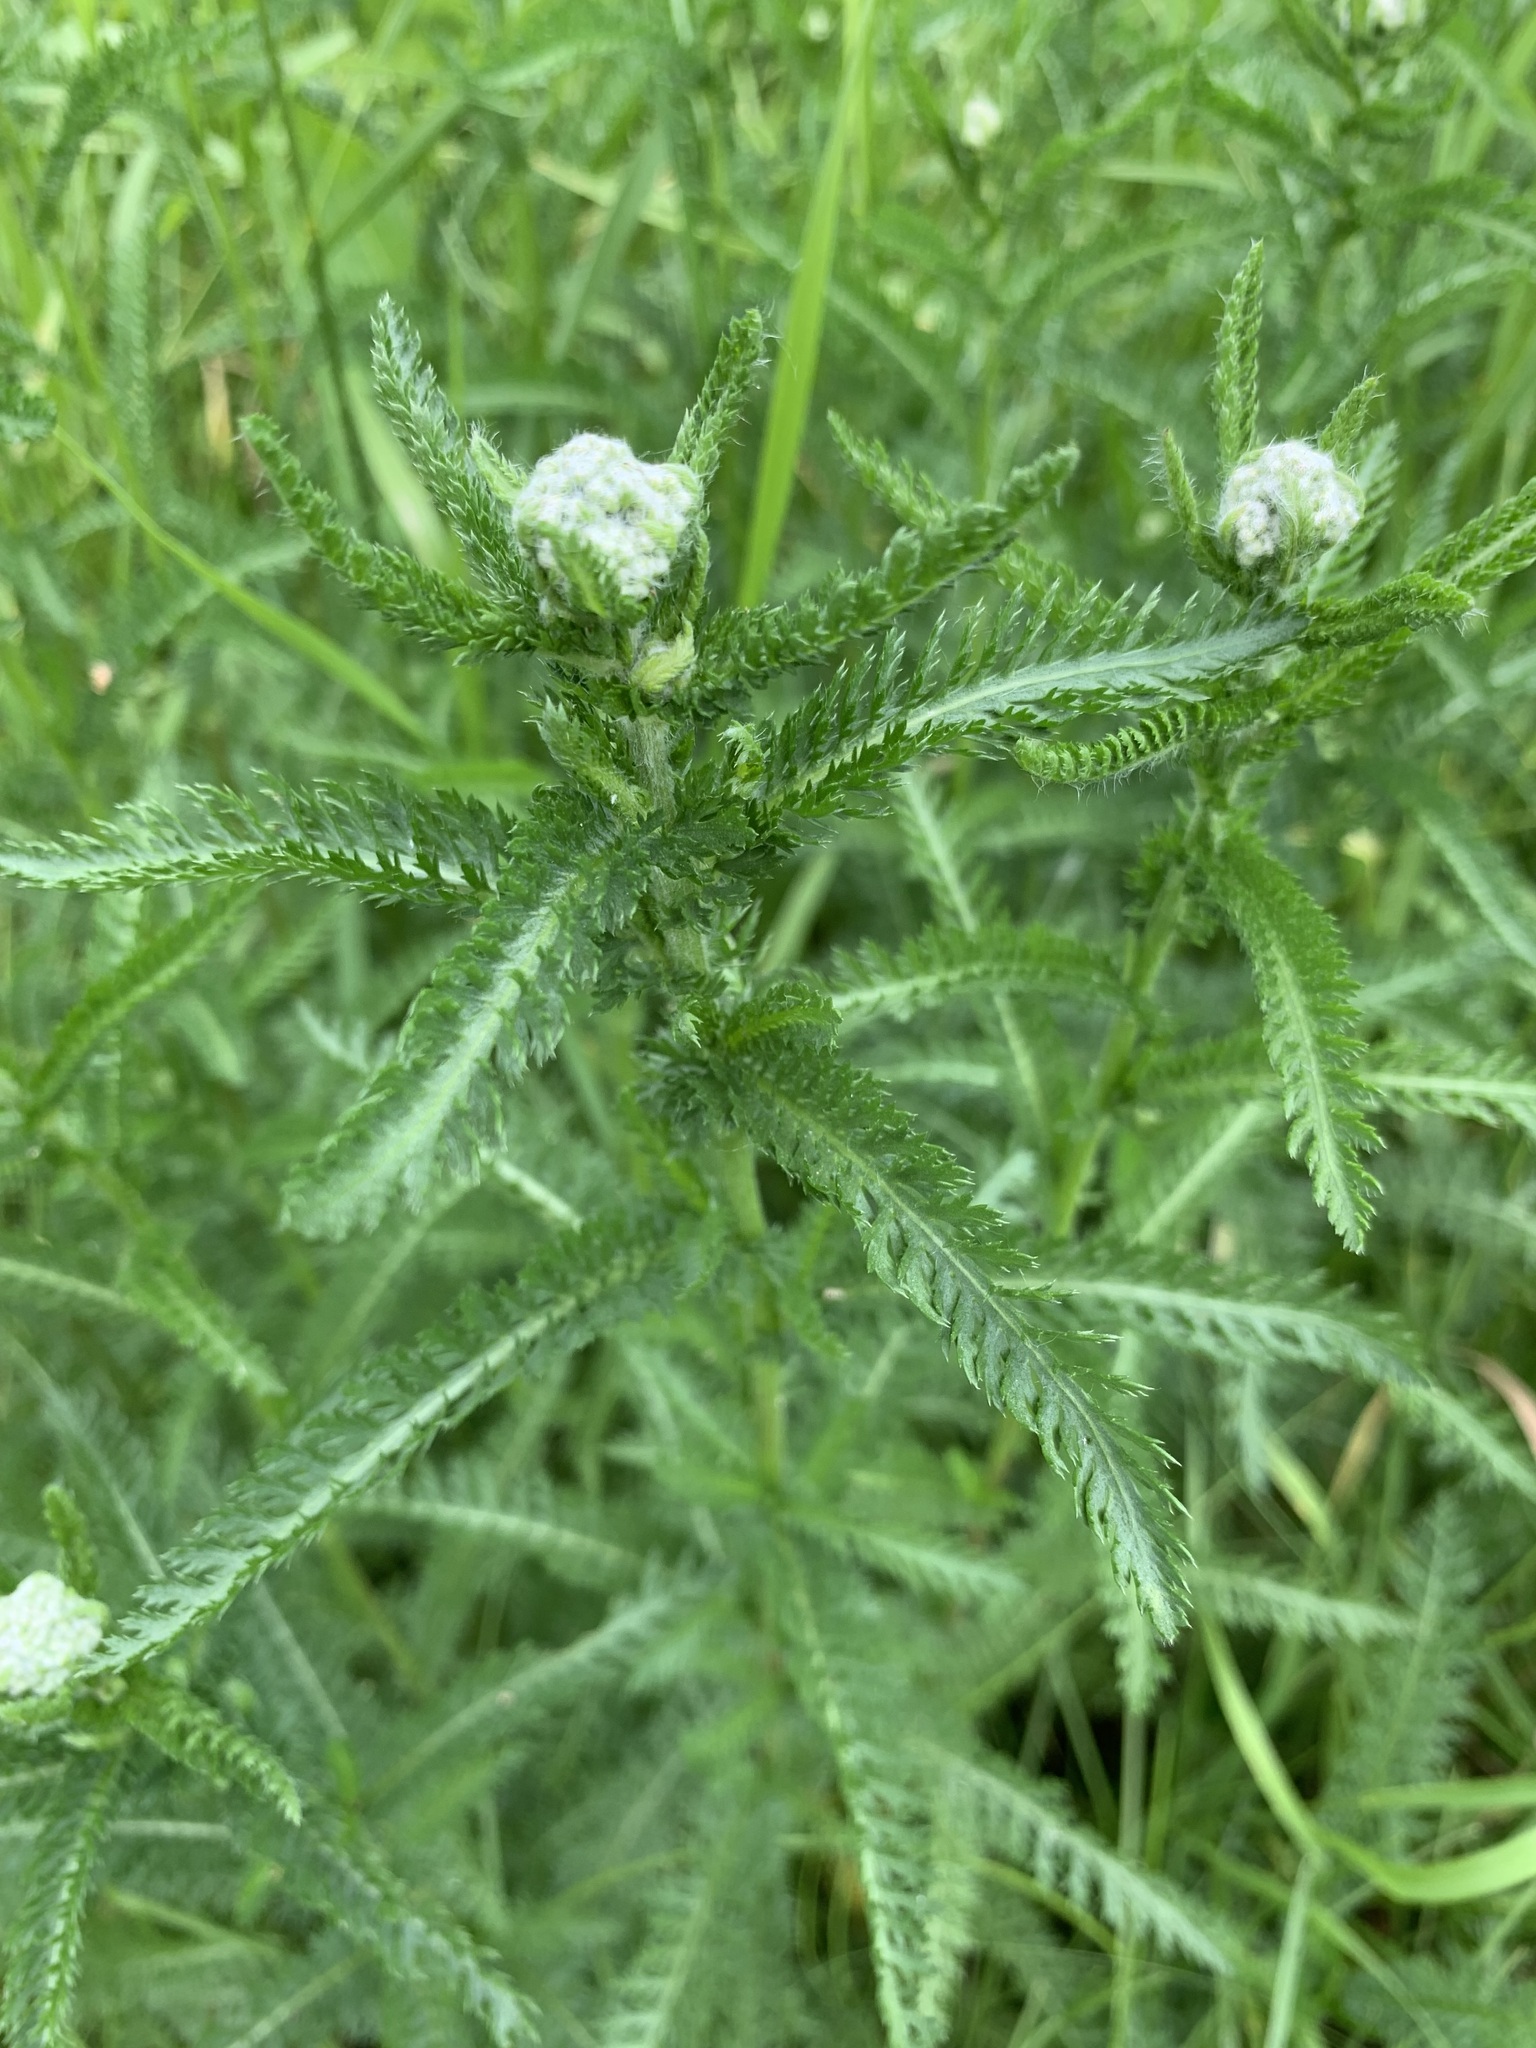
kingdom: Plantae
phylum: Tracheophyta
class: Magnoliopsida
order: Asterales
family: Asteraceae
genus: Achillea
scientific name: Achillea millefolium
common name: Yarrow
